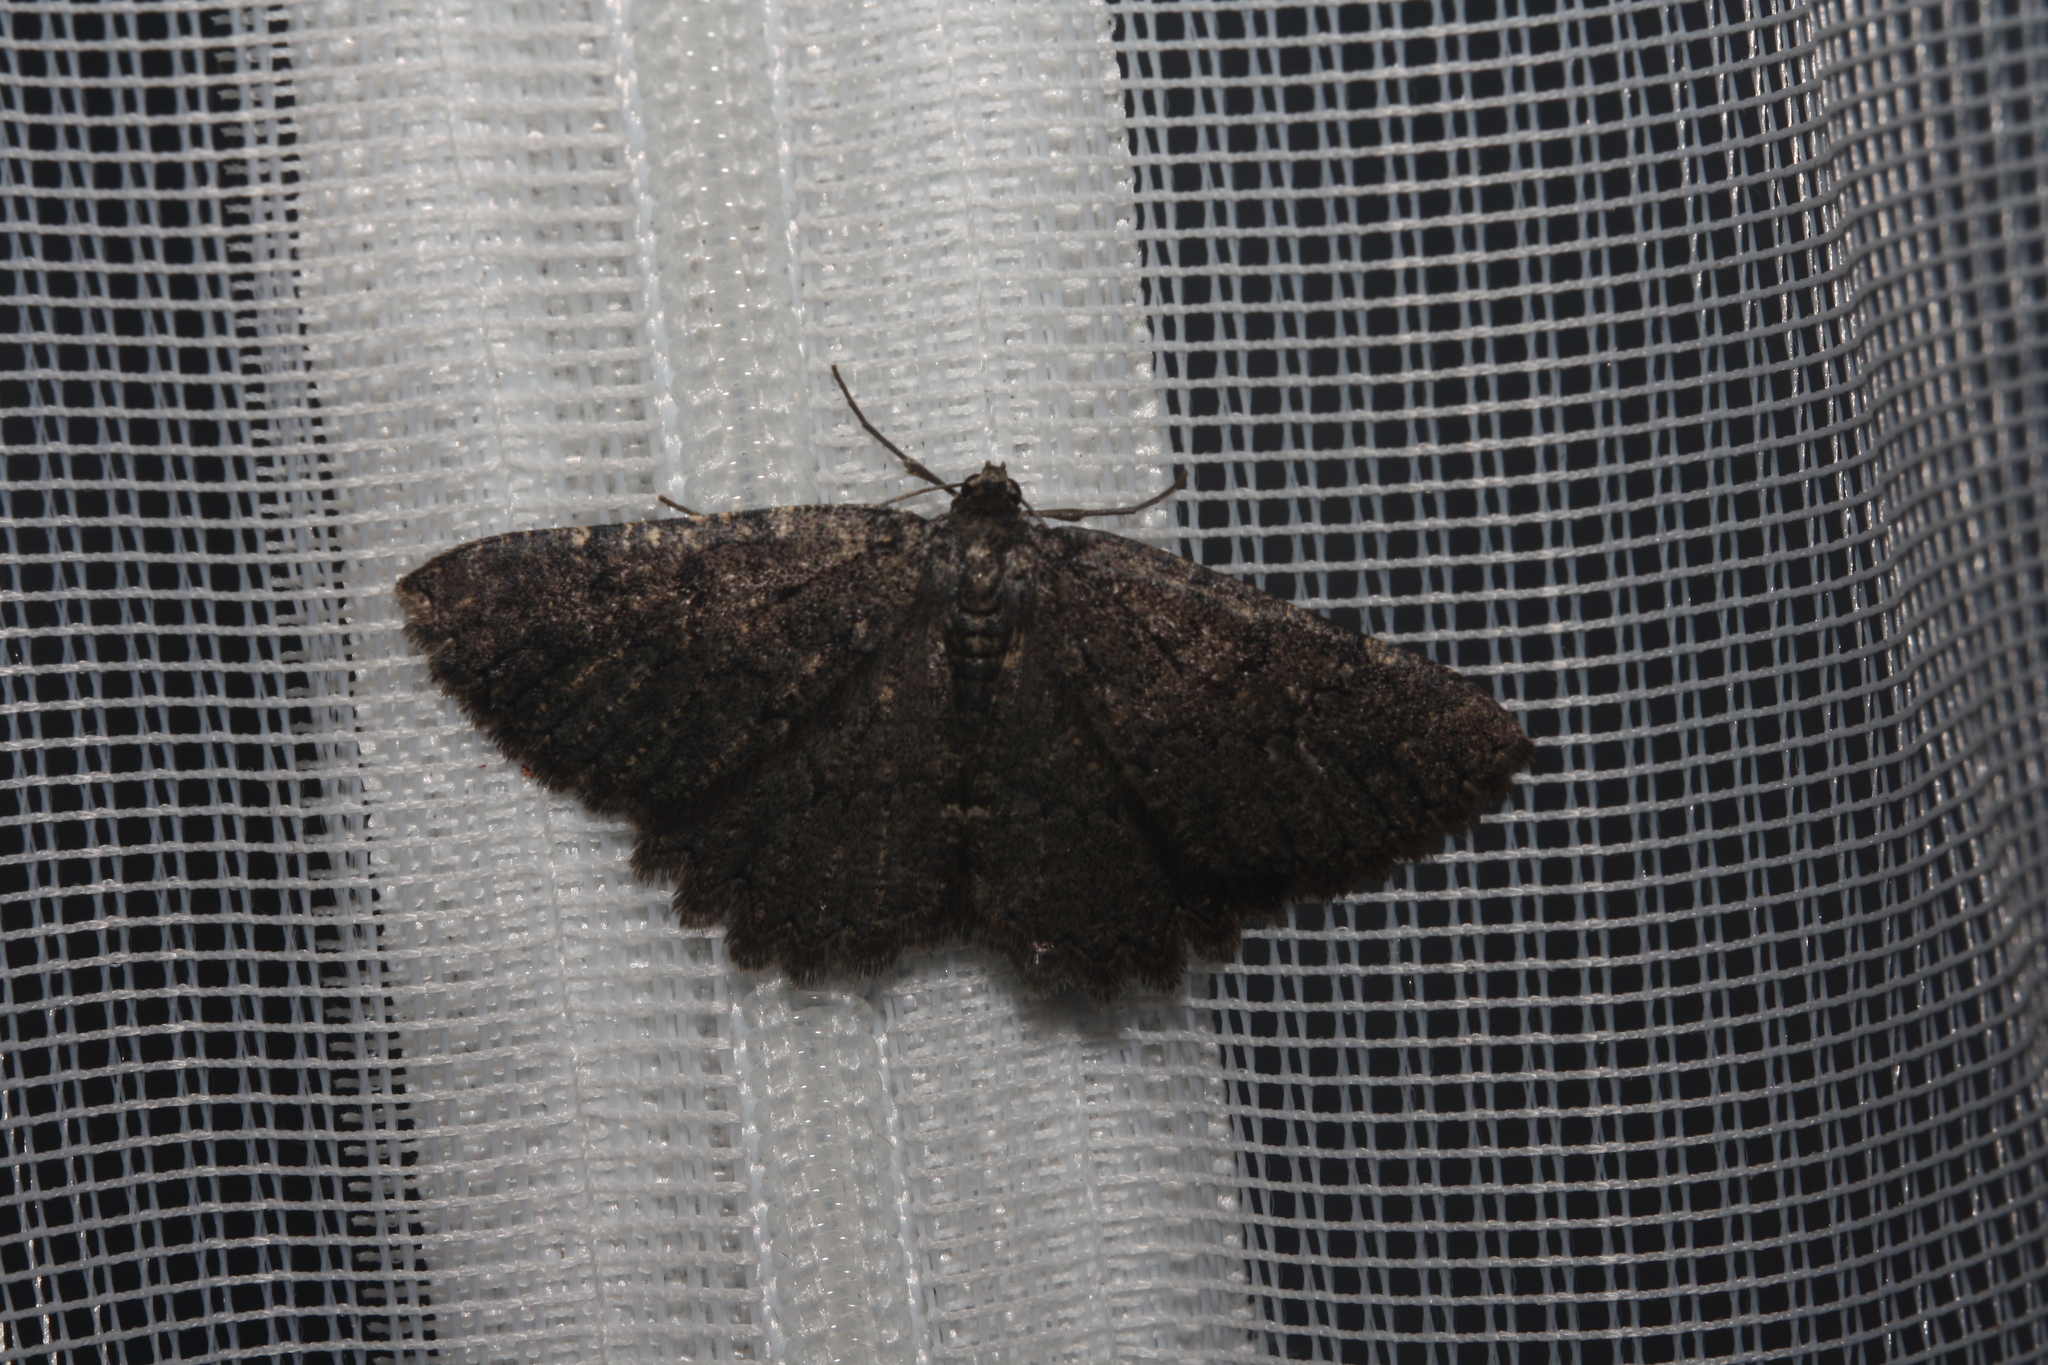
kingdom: Animalia
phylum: Arthropoda
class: Insecta
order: Lepidoptera
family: Geometridae
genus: Charissa
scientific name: Charissa obscurata
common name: Annulet
